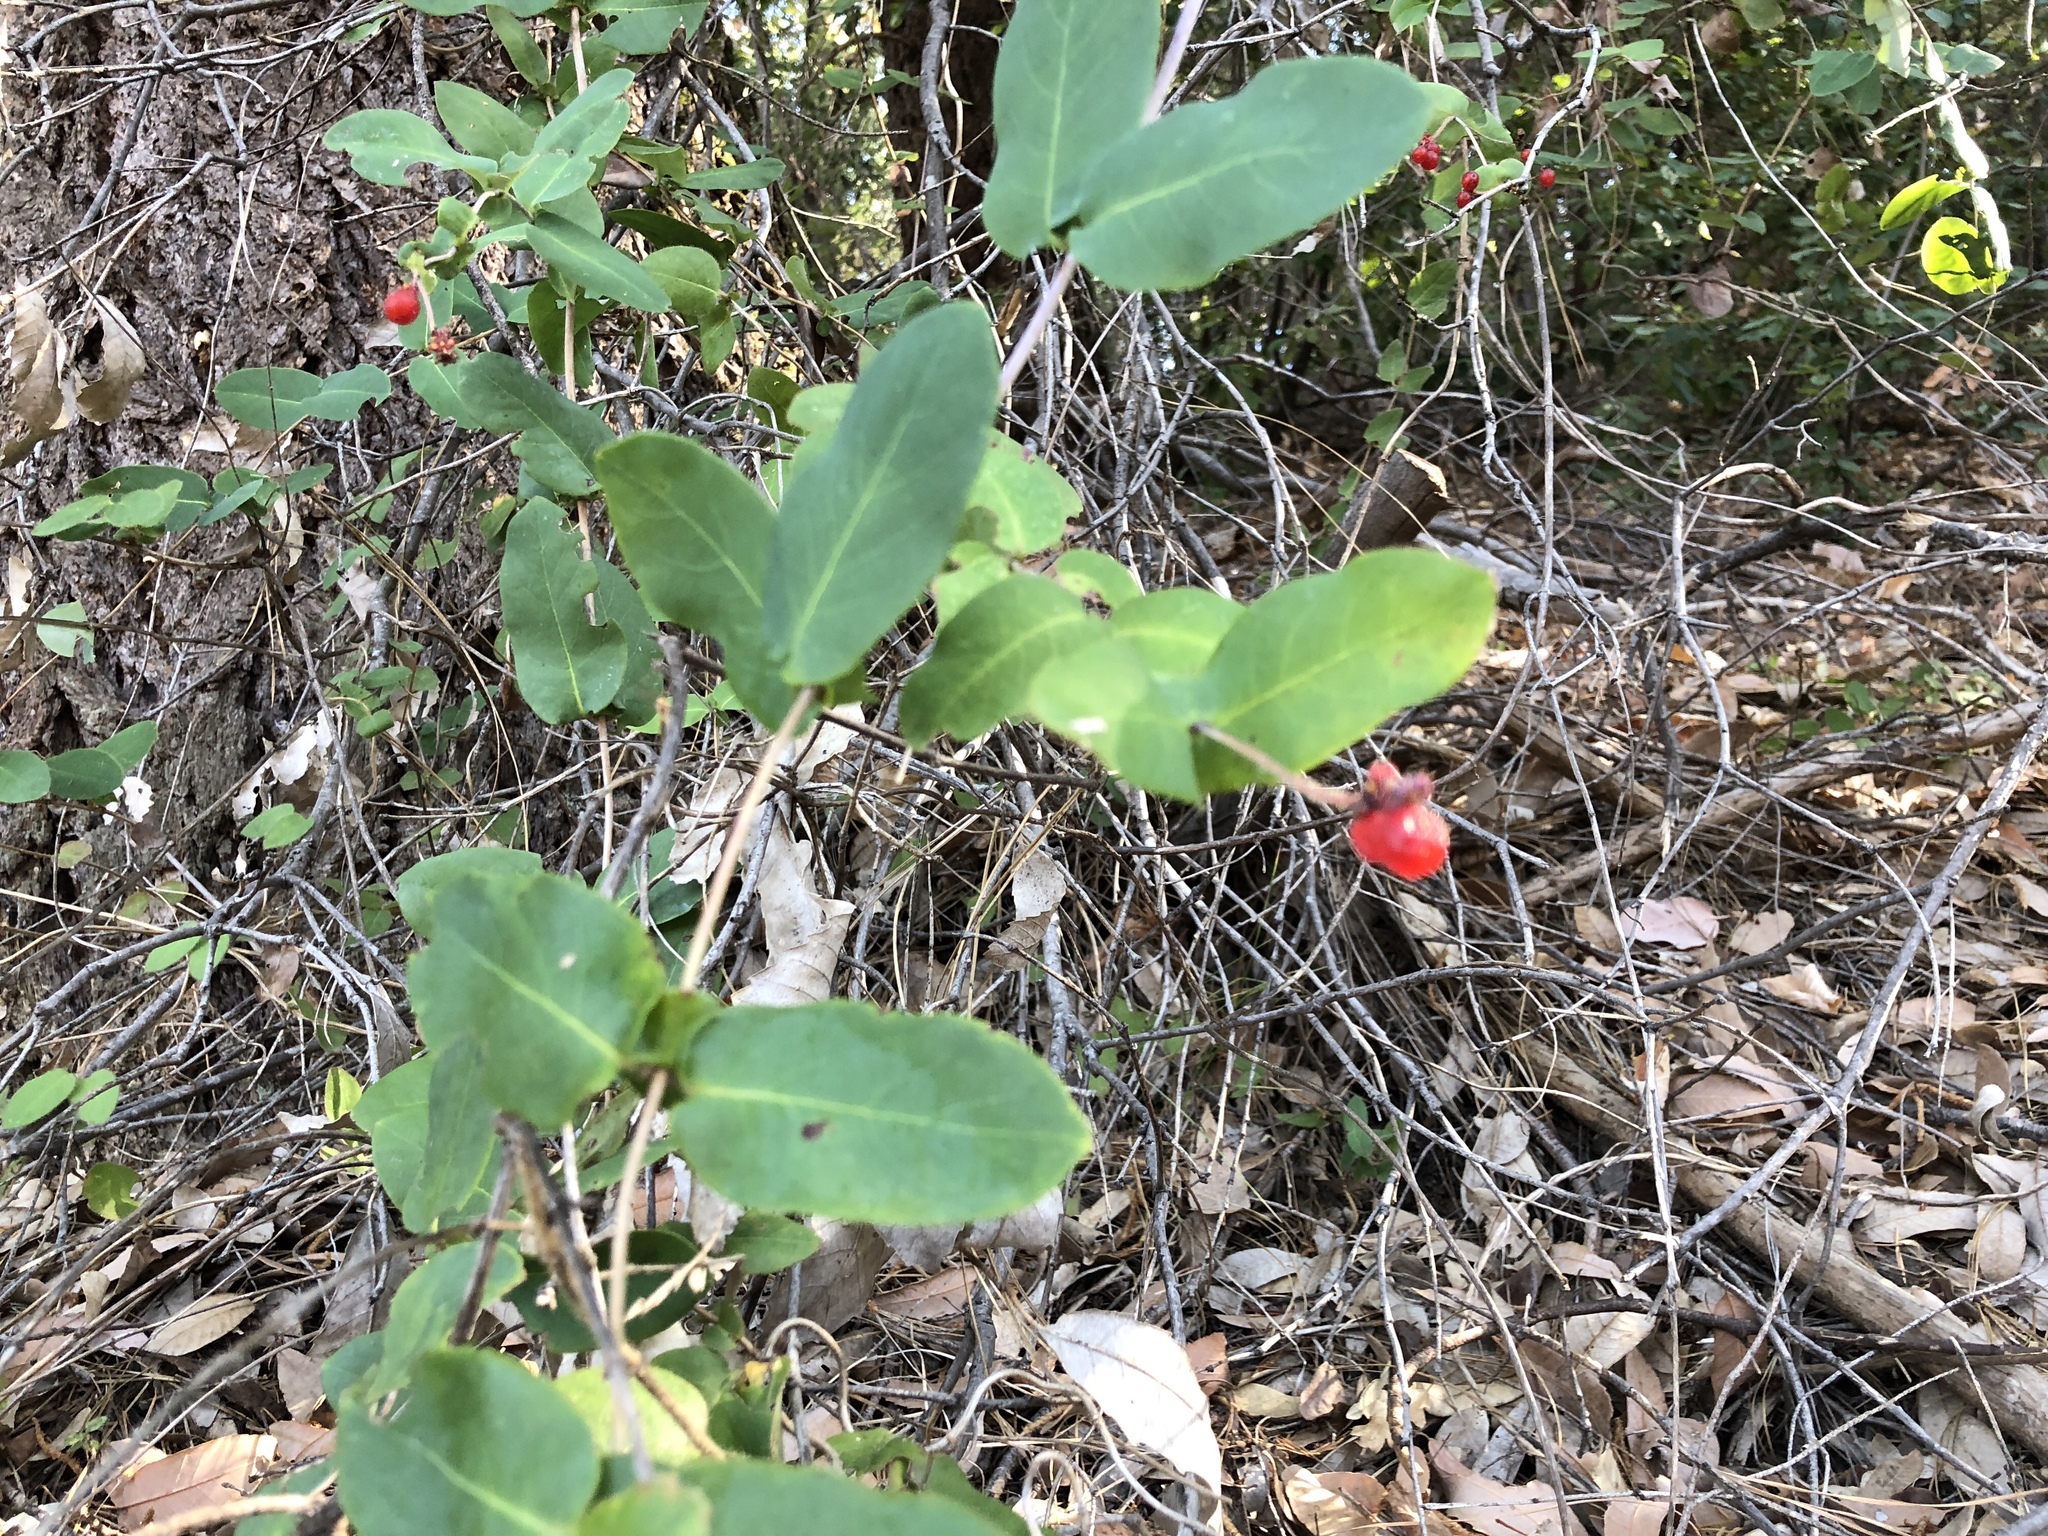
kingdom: Plantae
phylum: Tracheophyta
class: Magnoliopsida
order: Dipsacales
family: Caprifoliaceae
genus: Lonicera
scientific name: Lonicera hispidula
